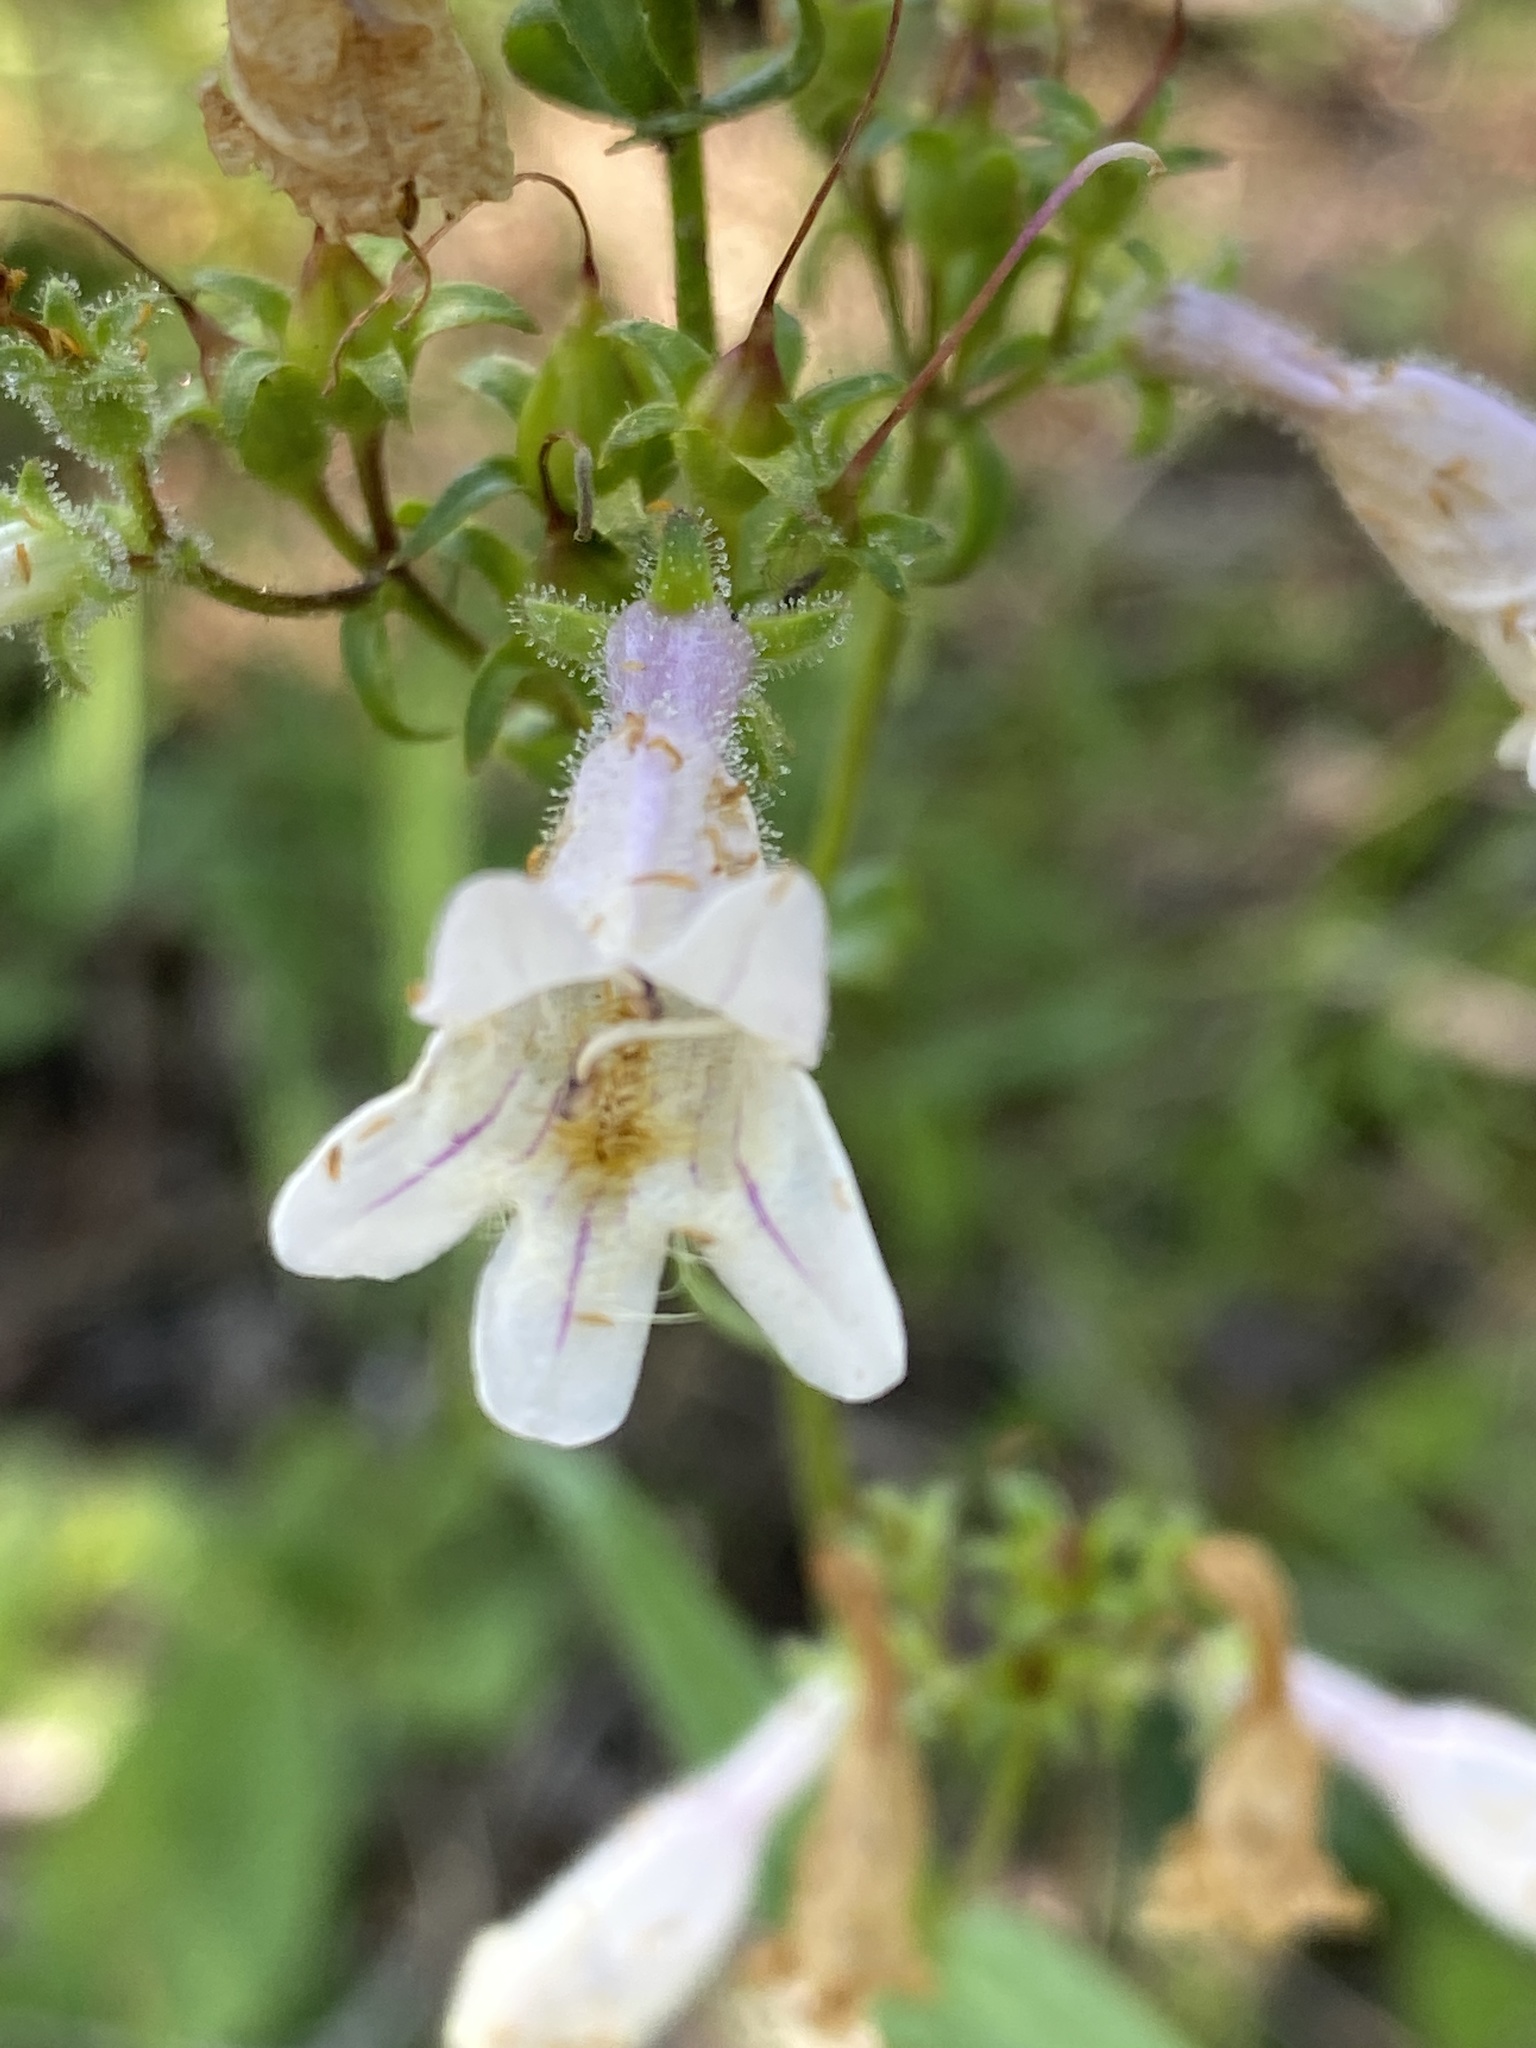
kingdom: Plantae
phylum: Tracheophyta
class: Magnoliopsida
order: Lamiales
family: Plantaginaceae
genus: Penstemon
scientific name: Penstemon laevigatus
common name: Eastern beardtongue
